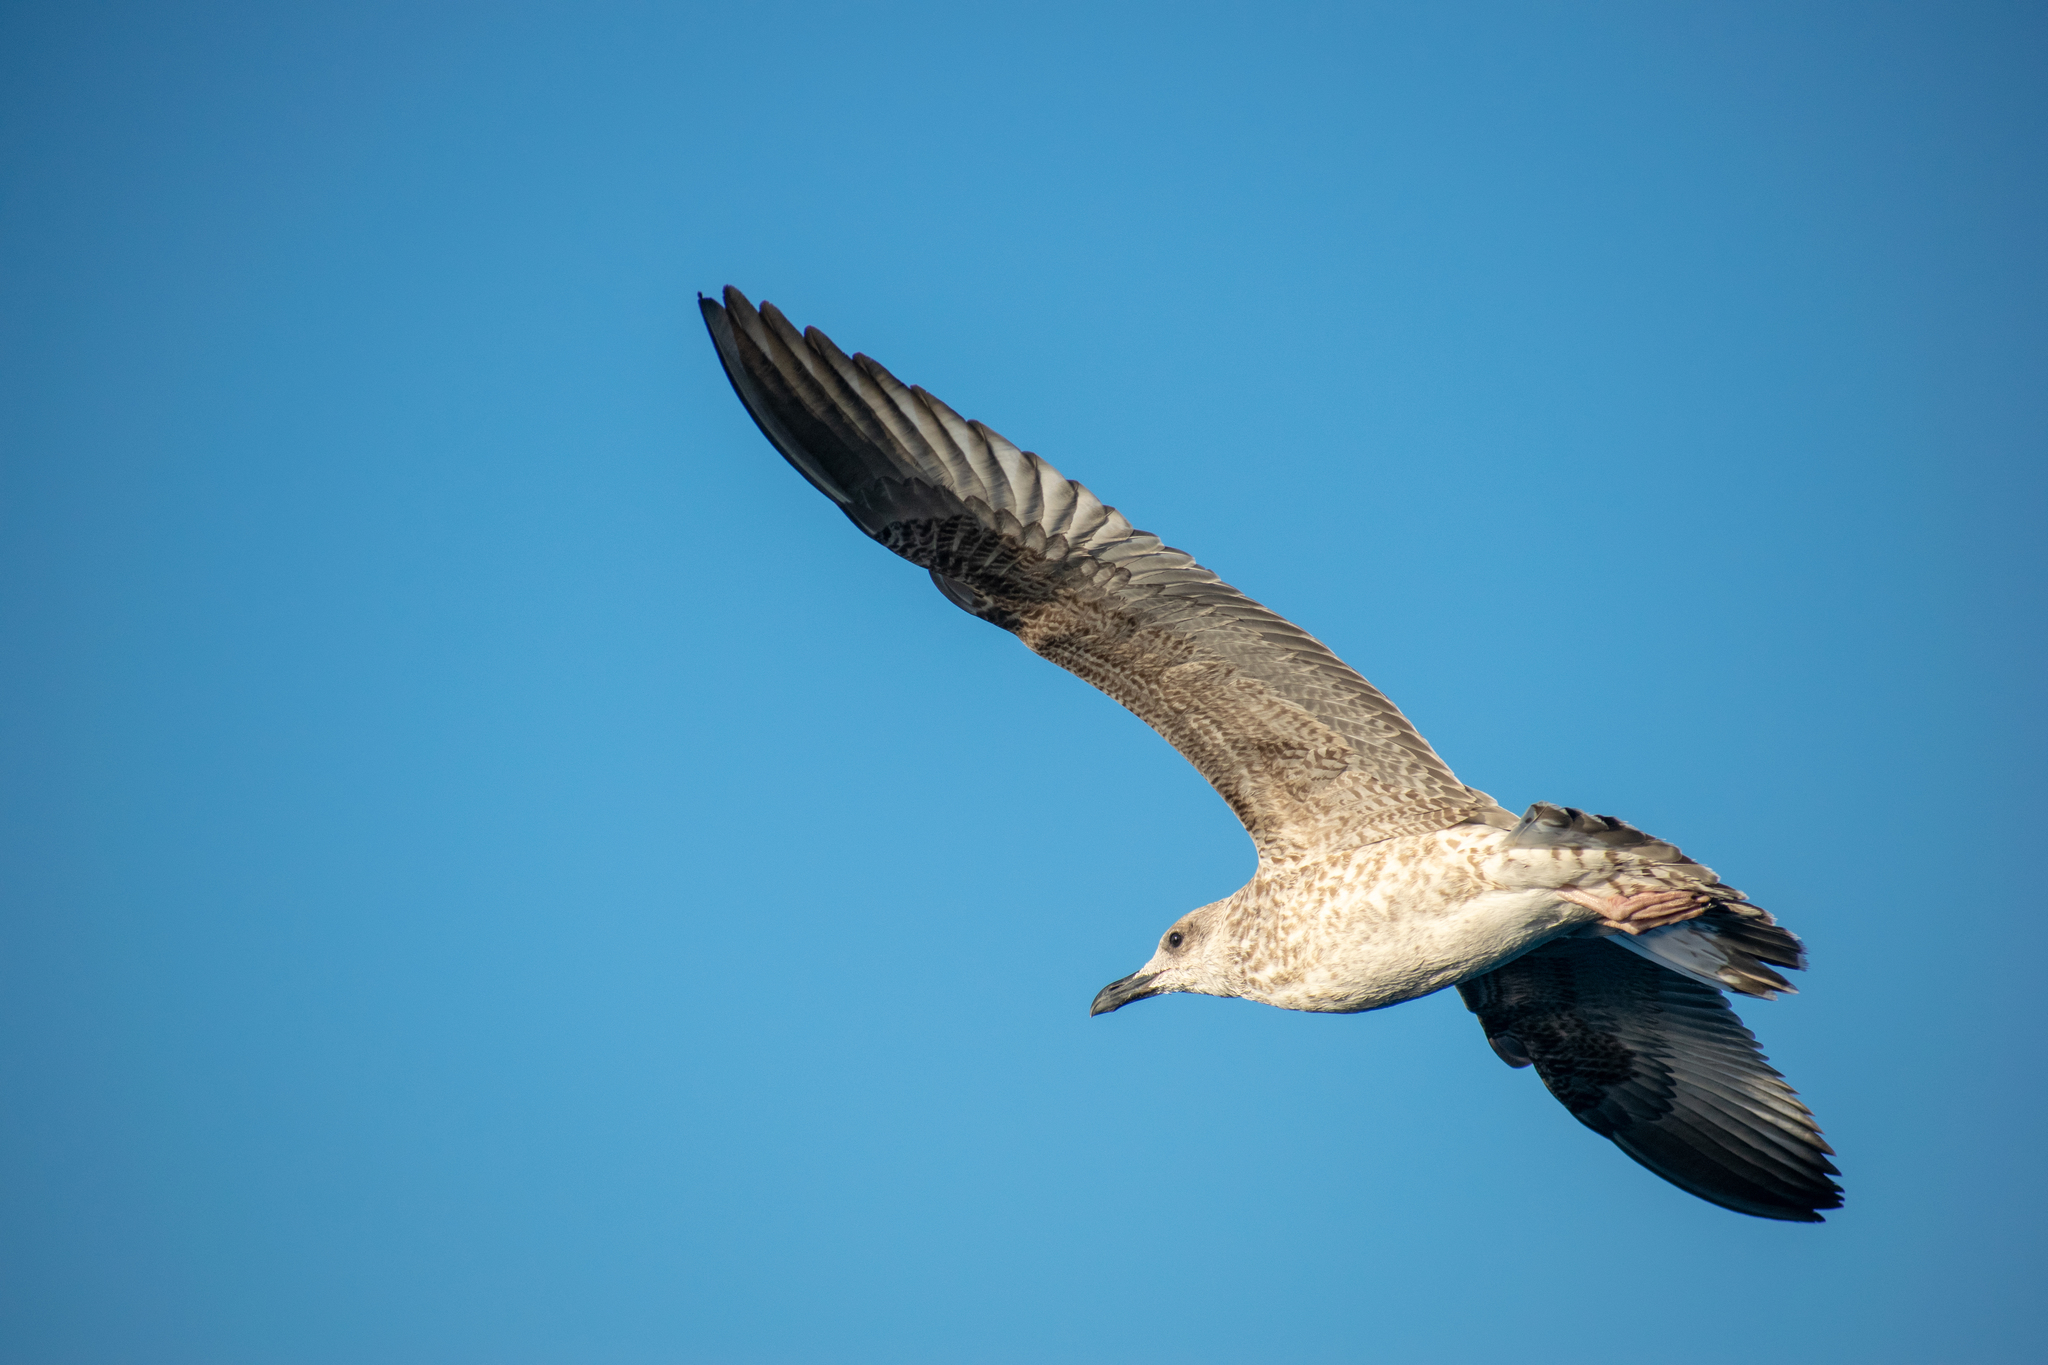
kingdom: Animalia
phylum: Chordata
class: Aves
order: Charadriiformes
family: Laridae
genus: Larus
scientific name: Larus michahellis
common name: Yellow-legged gull
